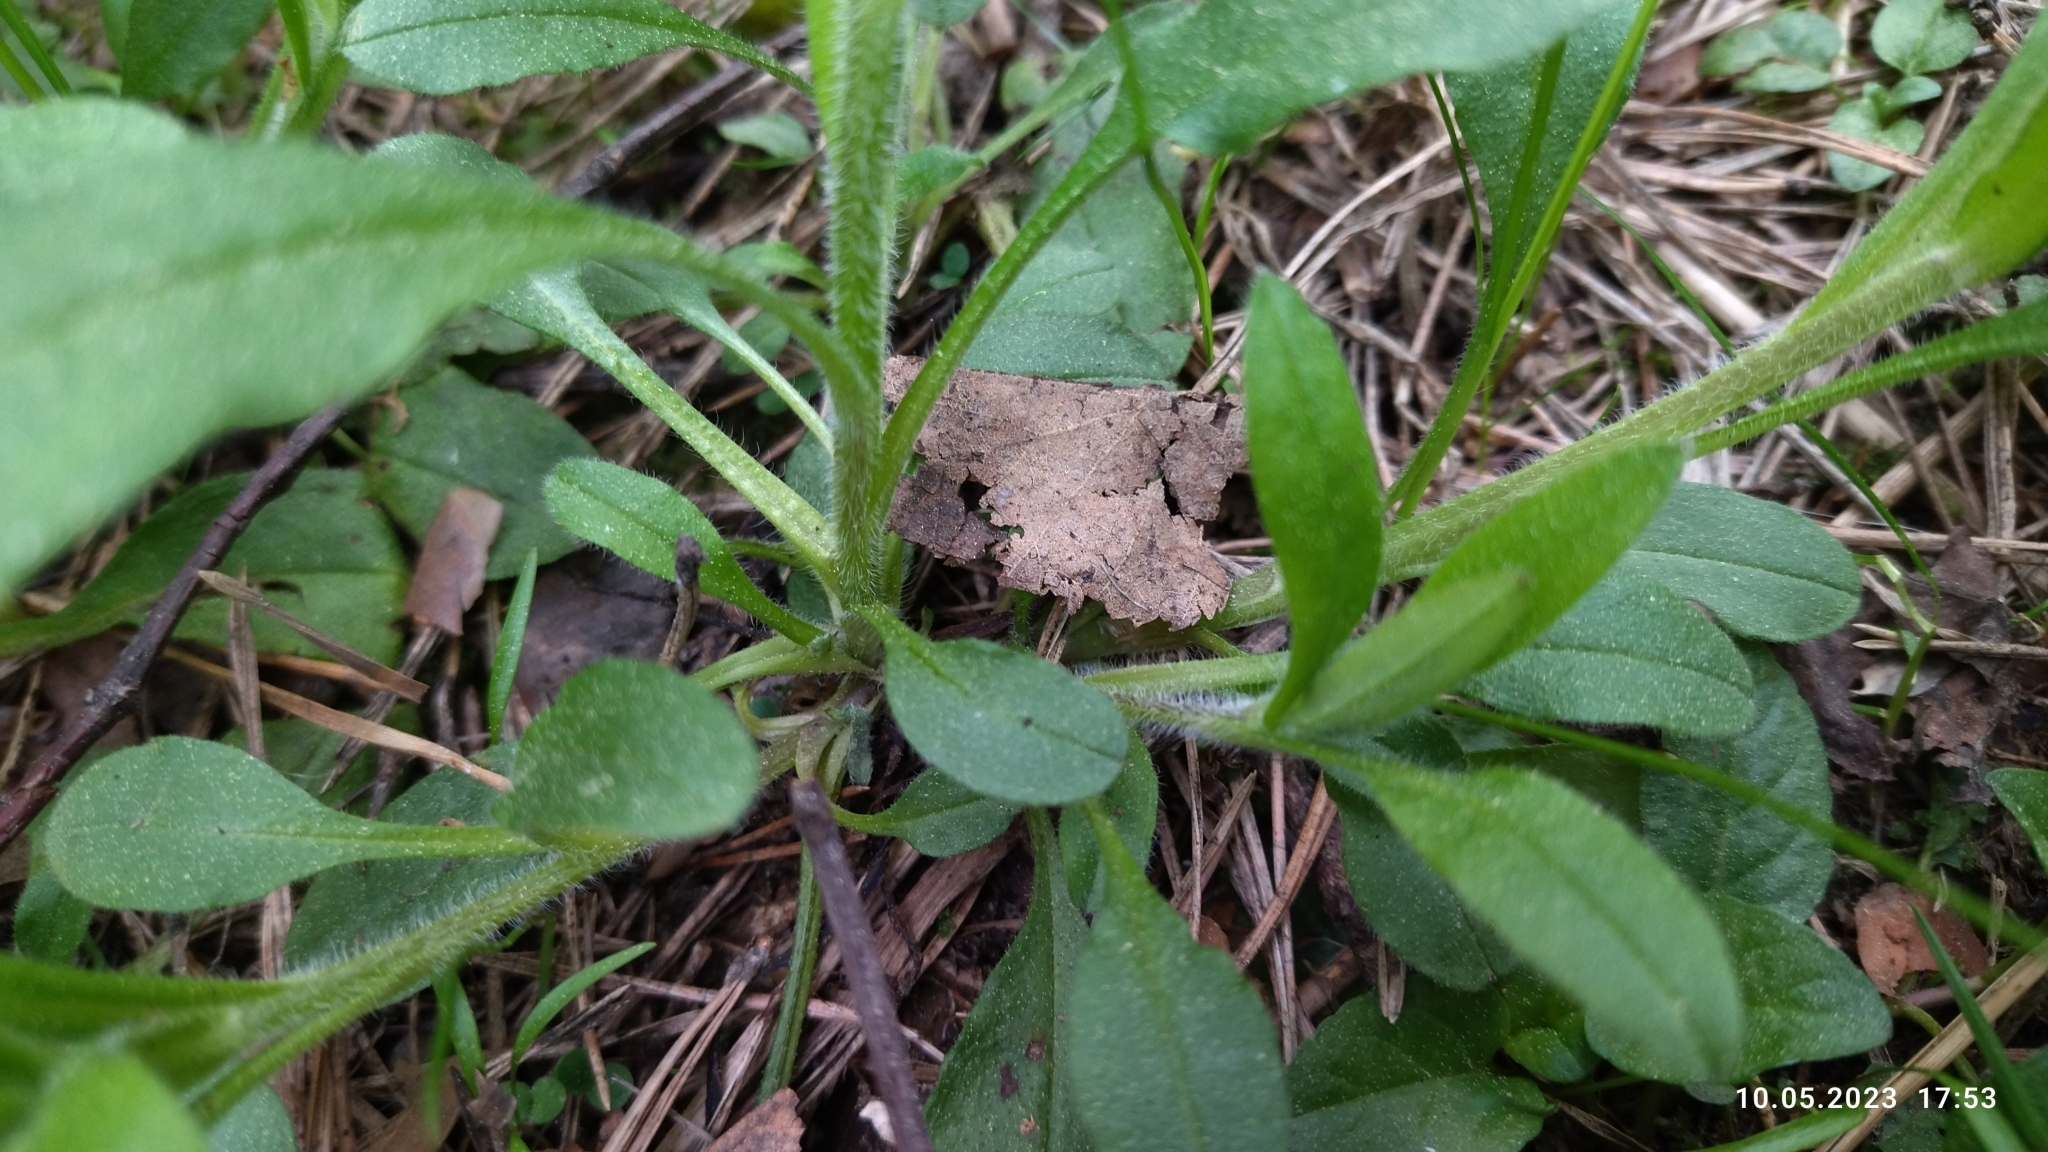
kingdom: Plantae
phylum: Tracheophyta
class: Magnoliopsida
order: Boraginales
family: Boraginaceae
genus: Myosotis
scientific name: Myosotis sparsiflora
